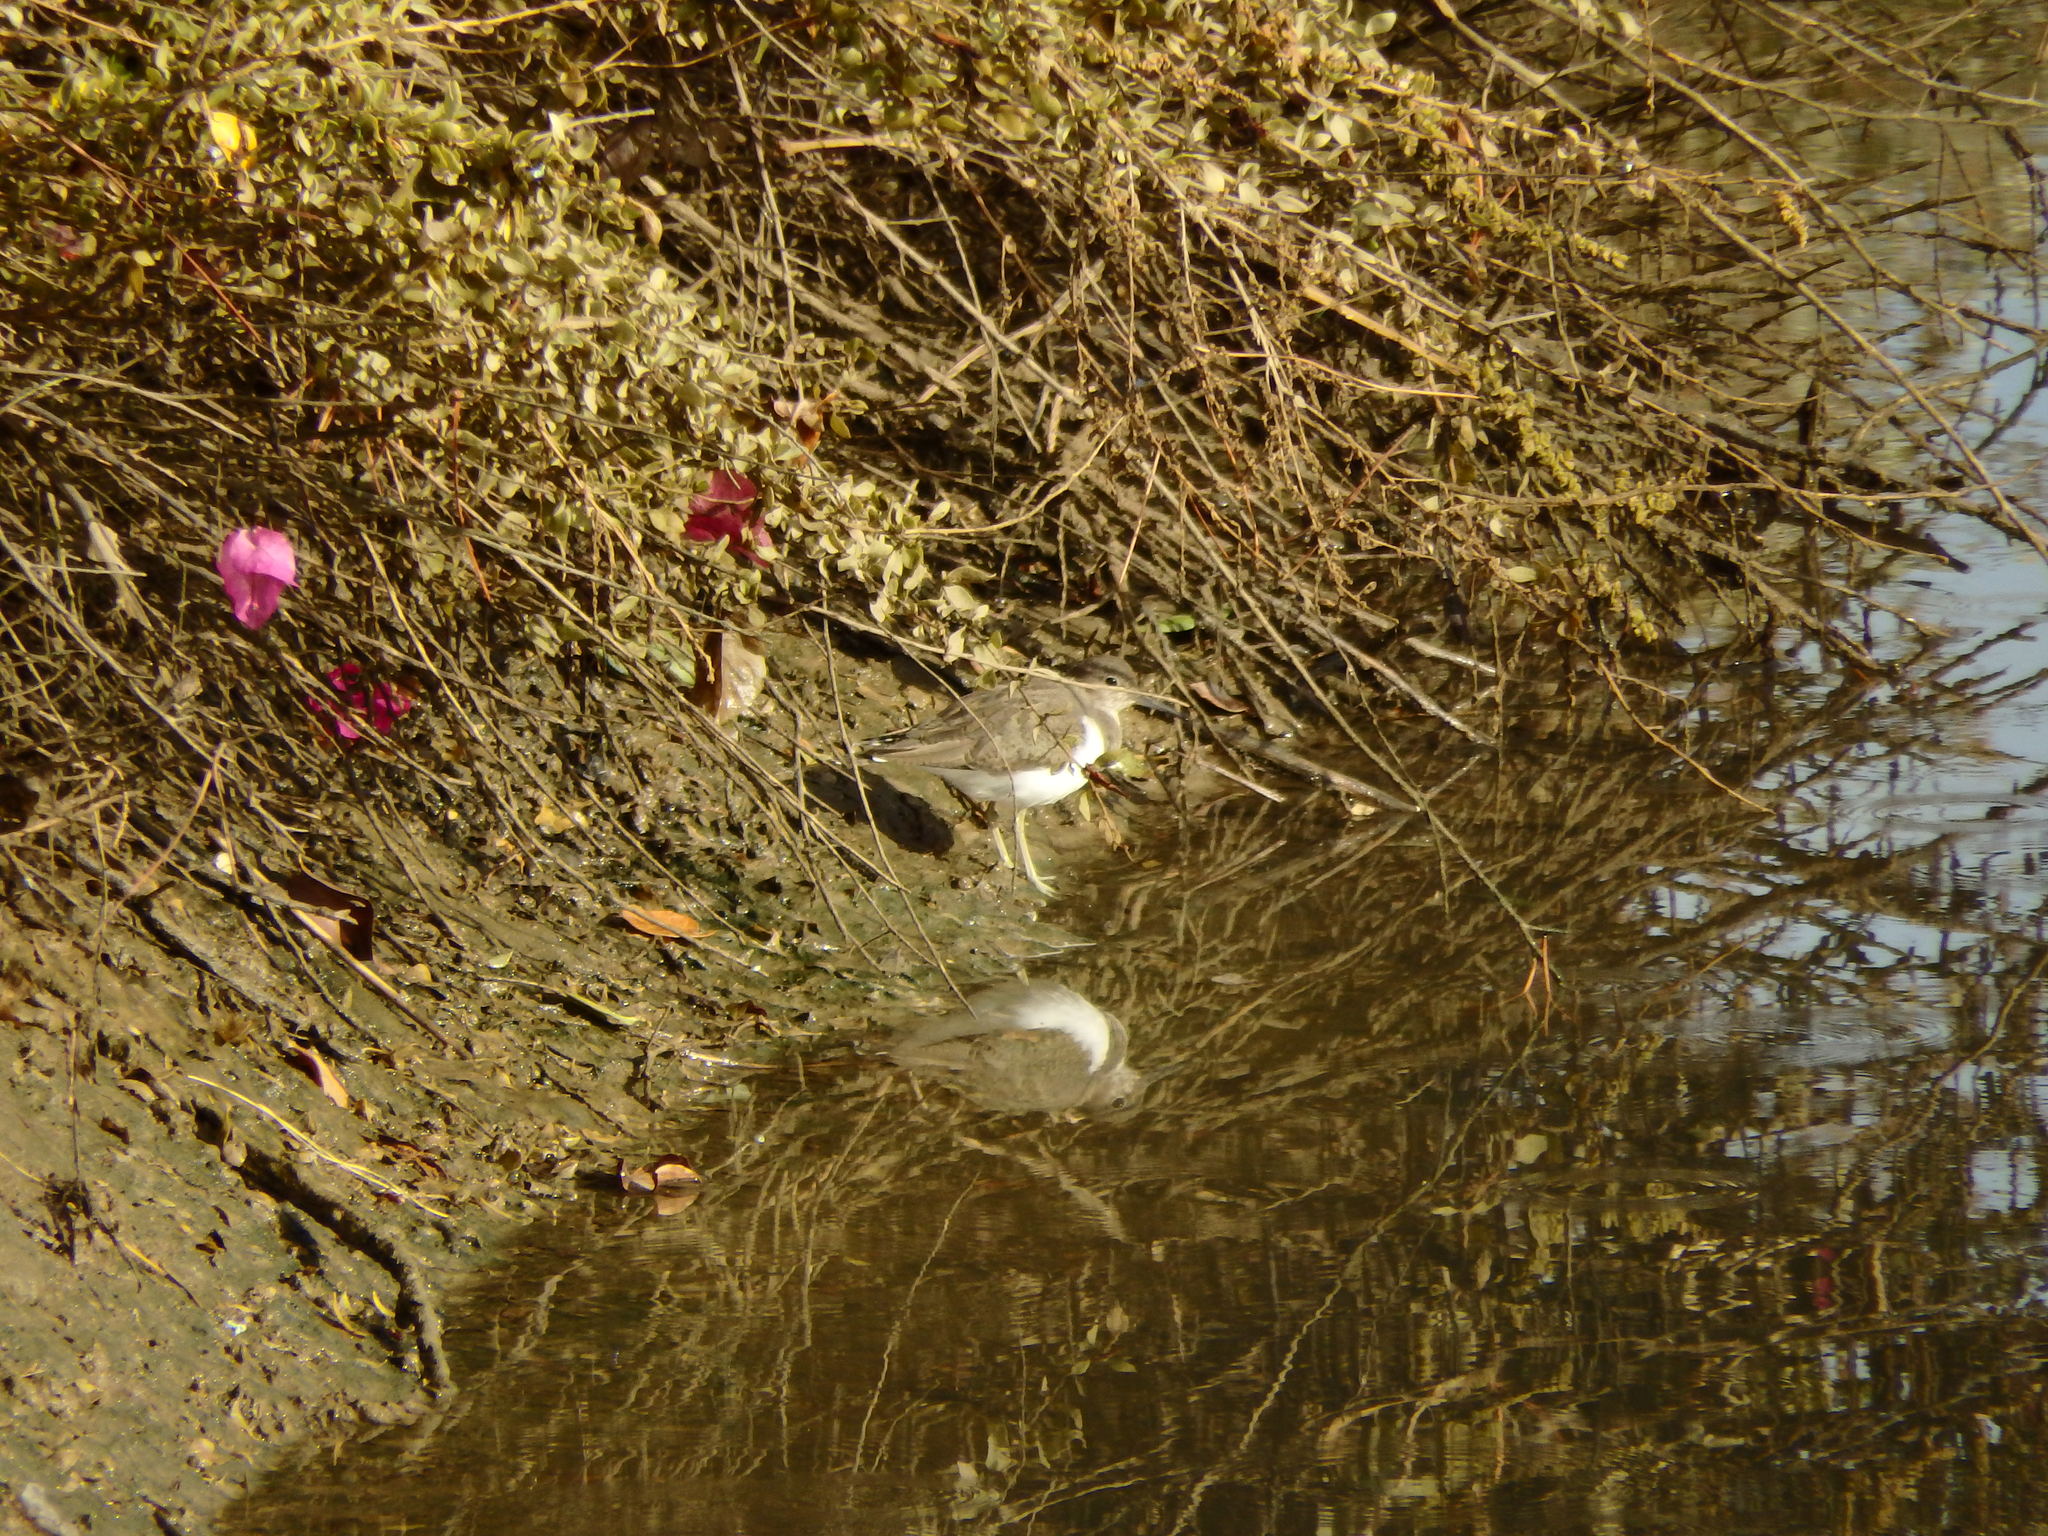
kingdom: Animalia
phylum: Chordata
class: Aves
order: Charadriiformes
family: Scolopacidae
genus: Actitis
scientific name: Actitis hypoleucos
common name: Common sandpiper
